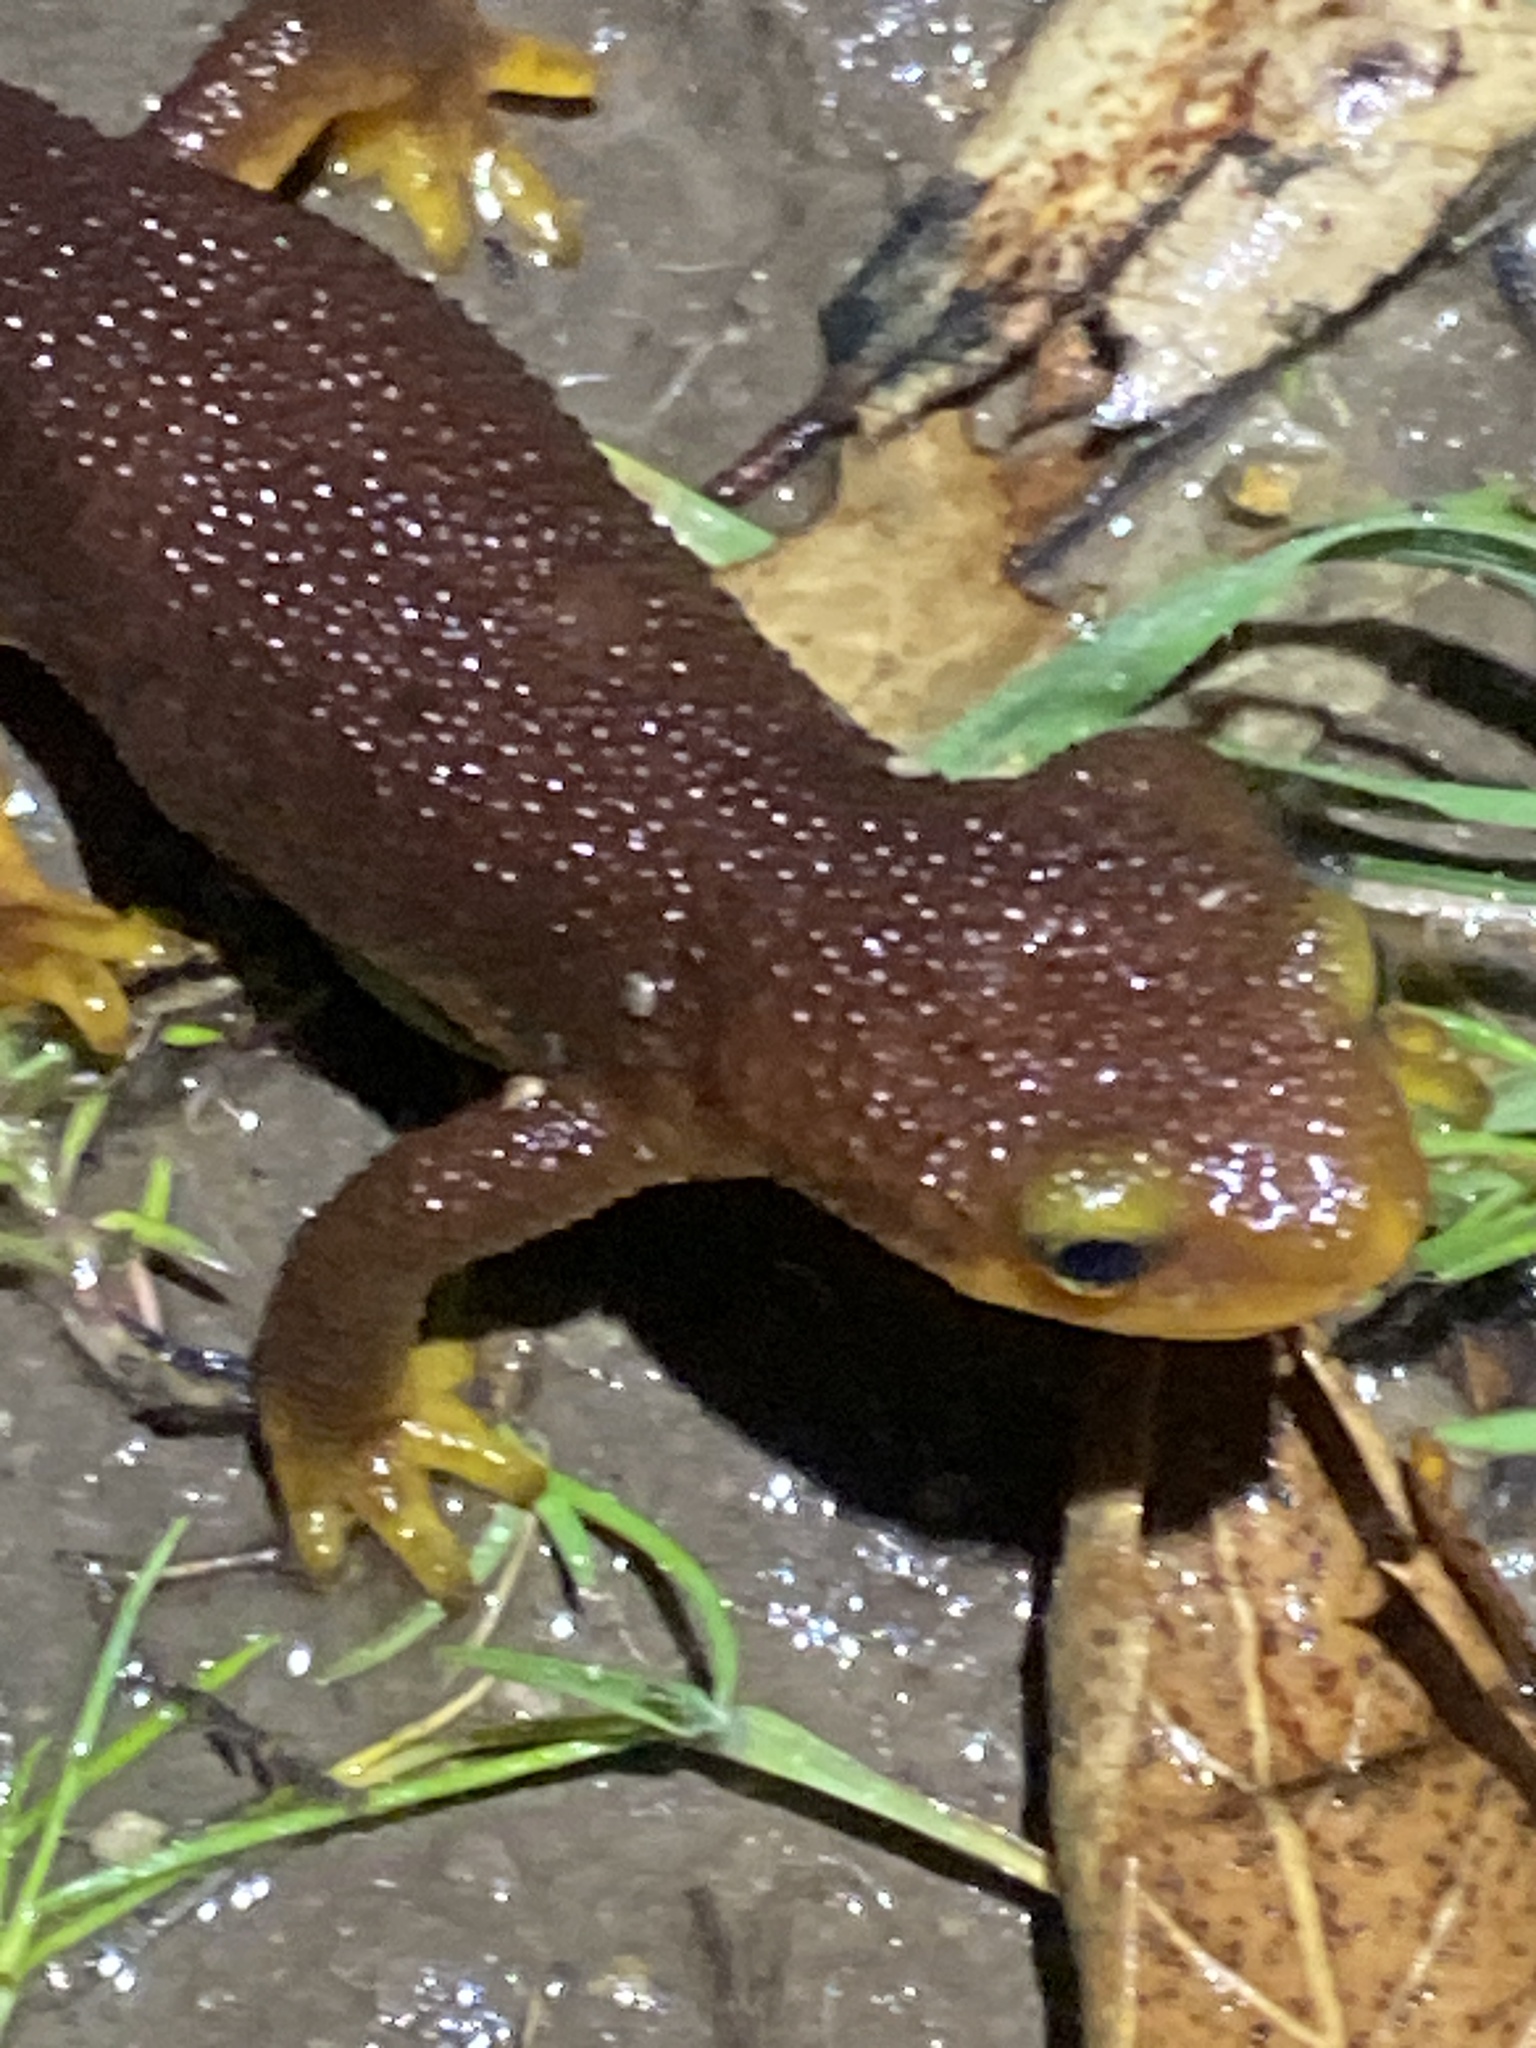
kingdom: Animalia
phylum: Chordata
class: Amphibia
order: Caudata
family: Salamandridae
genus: Taricha
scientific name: Taricha torosa
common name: California newt
